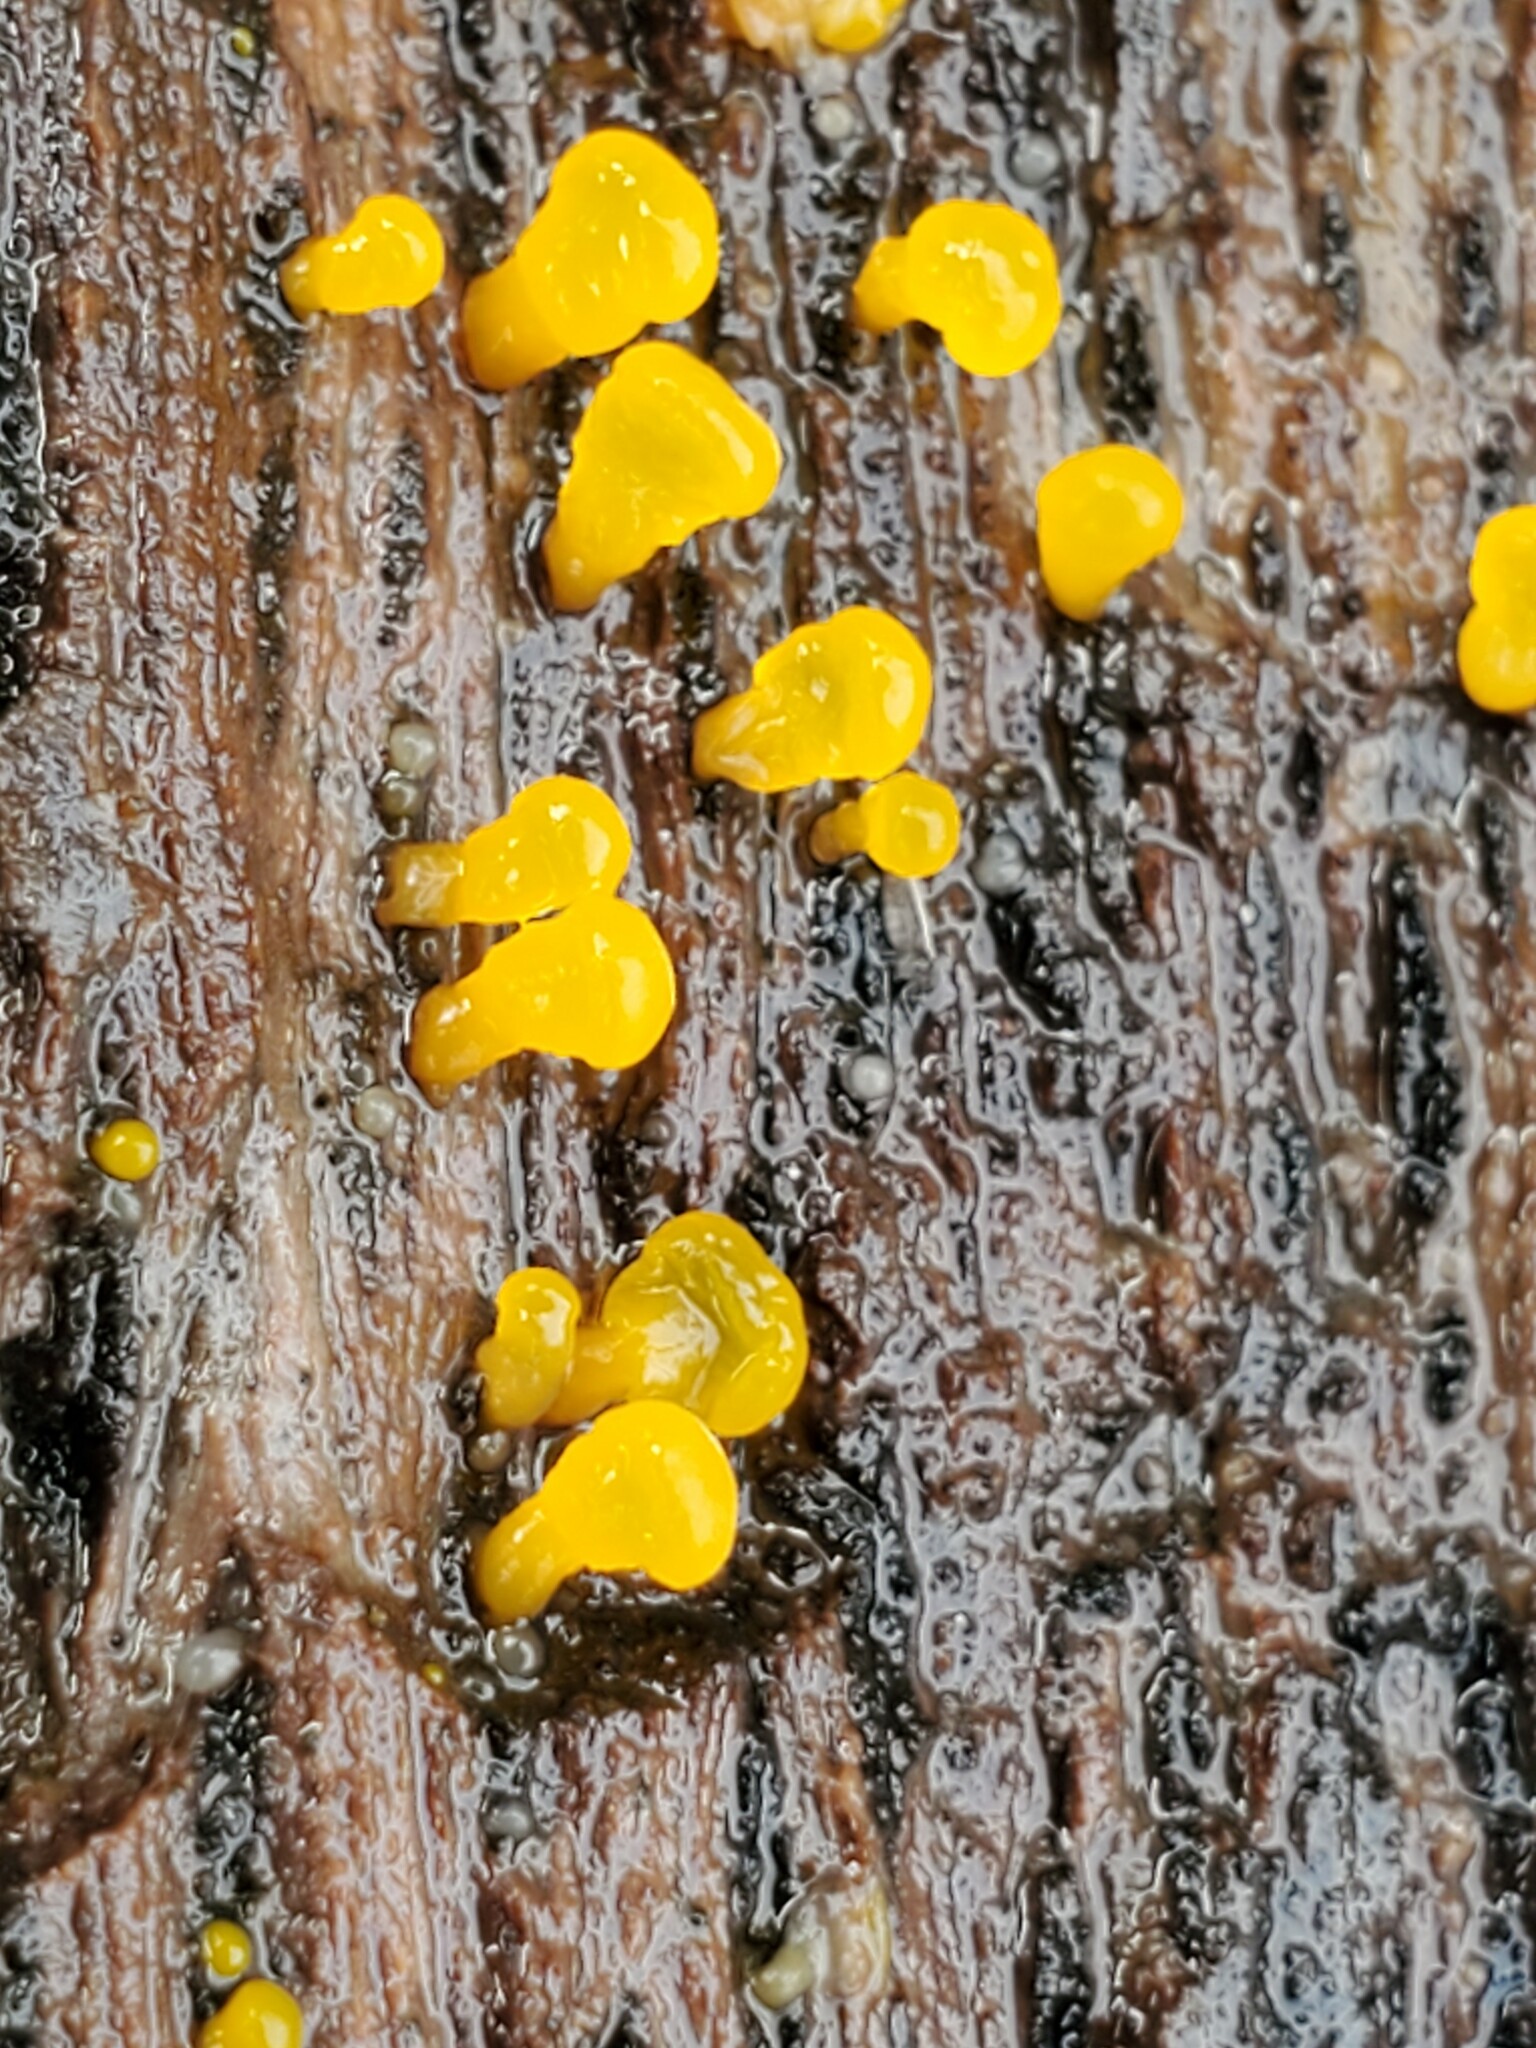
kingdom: Fungi
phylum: Basidiomycota
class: Dacrymycetes
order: Dacrymycetales
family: Dacrymycetaceae
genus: Dacrymyces
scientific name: Dacrymyces capitatus
